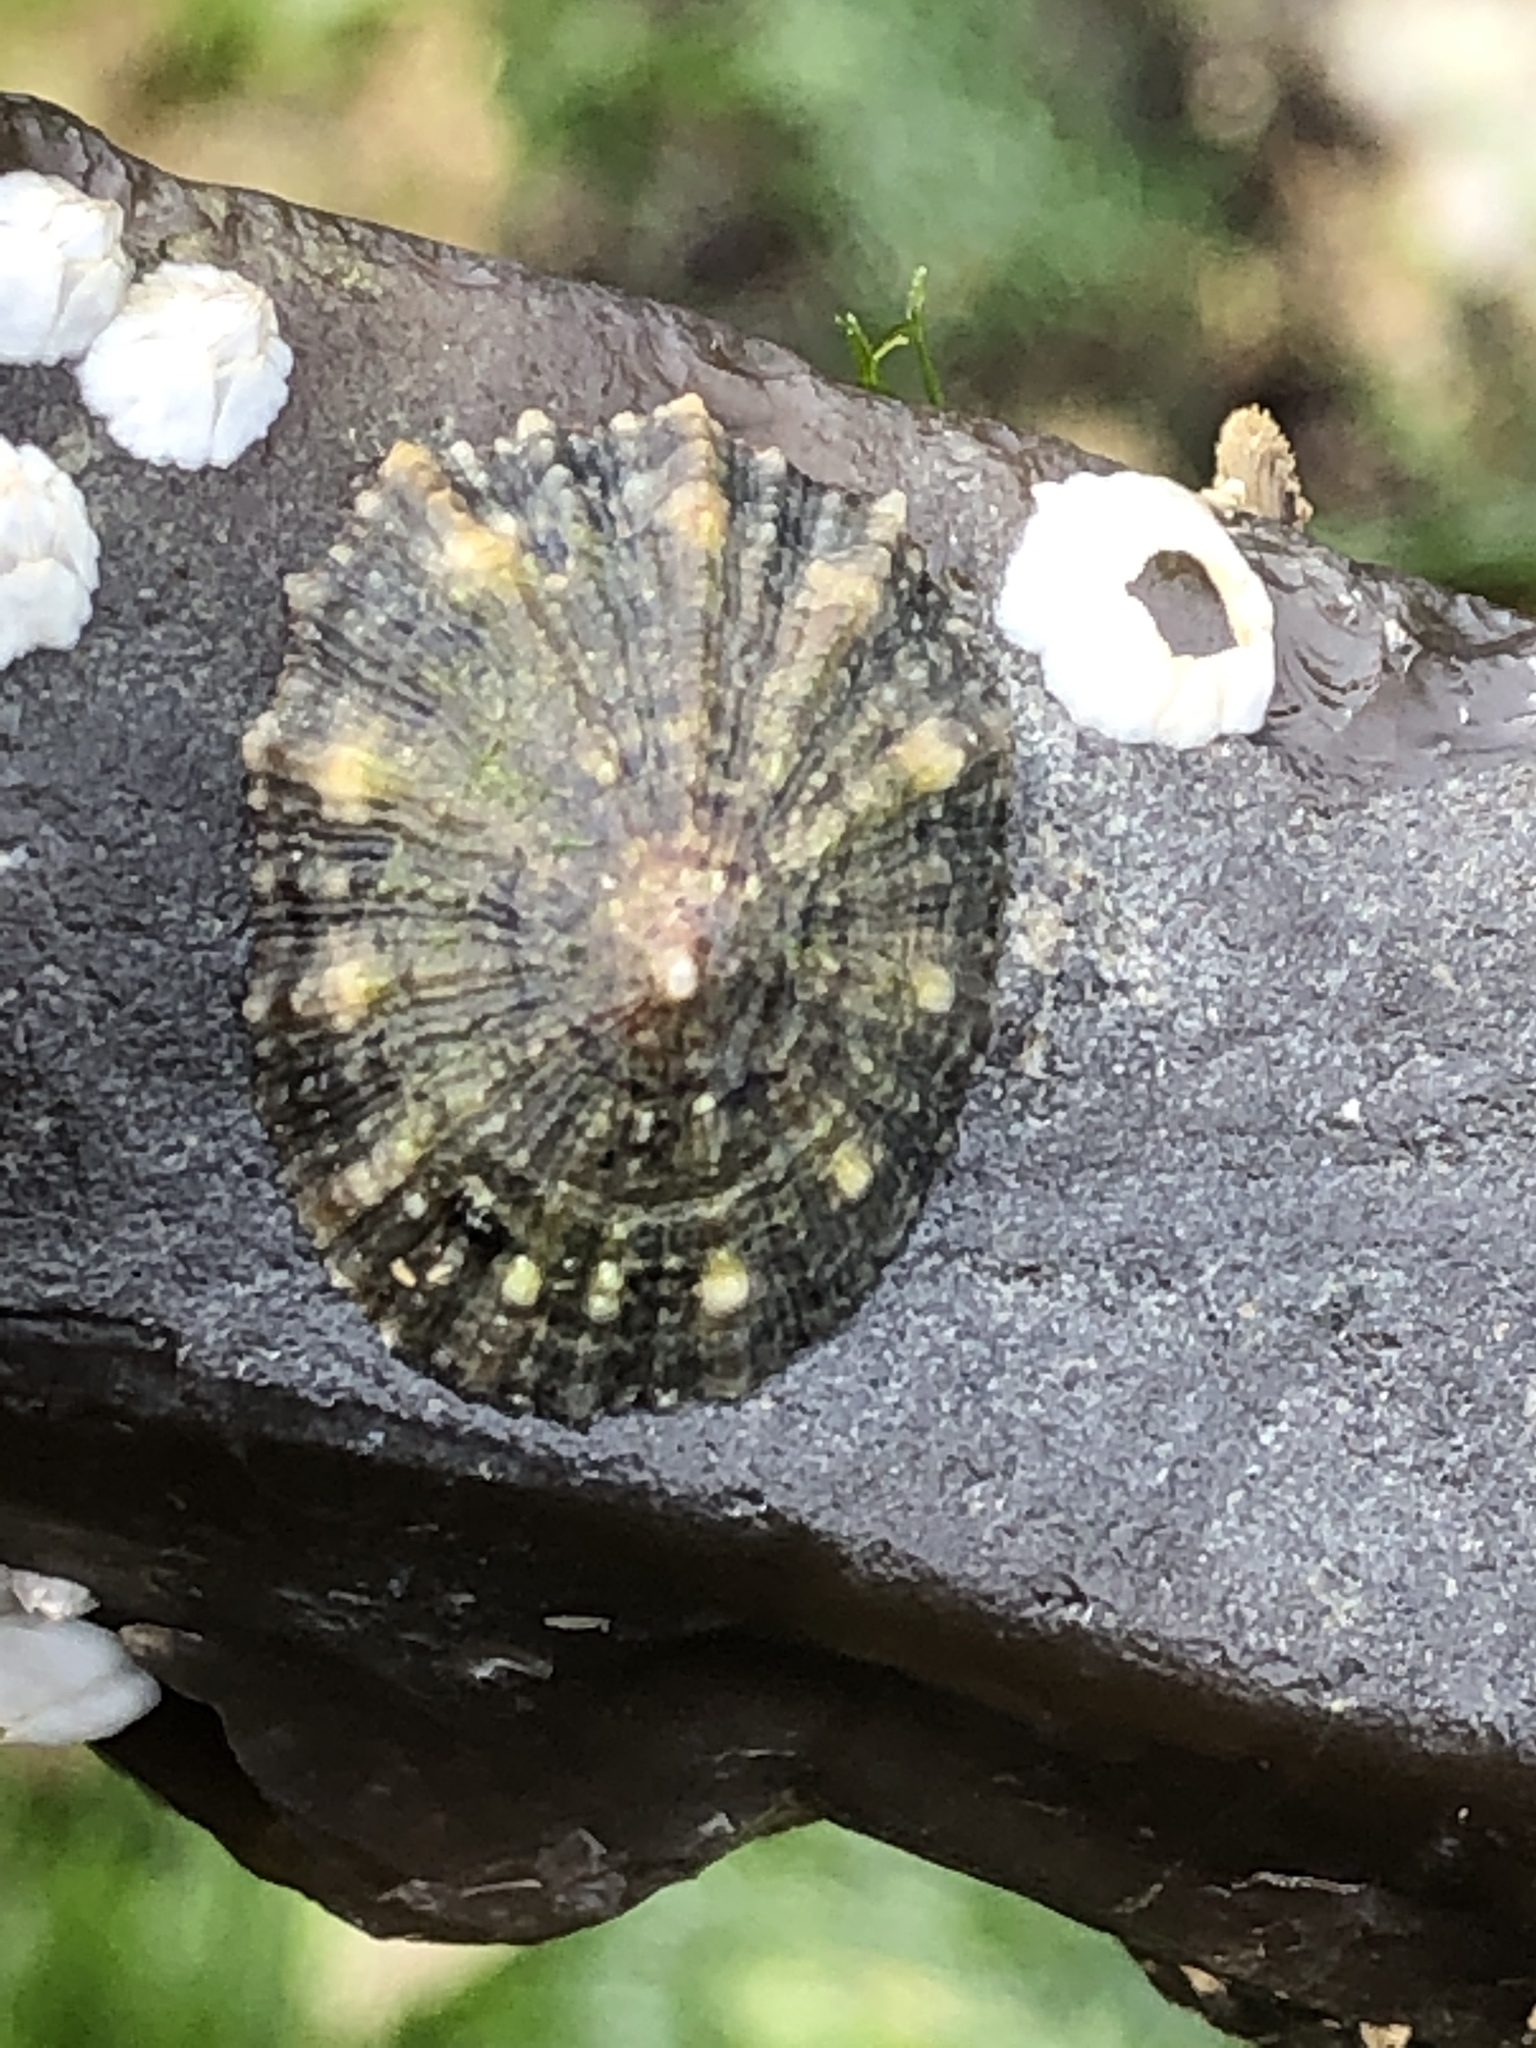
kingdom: Animalia
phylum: Mollusca
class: Gastropoda
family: Patellidae
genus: Patella
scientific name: Patella vulgata
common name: Common limpet
